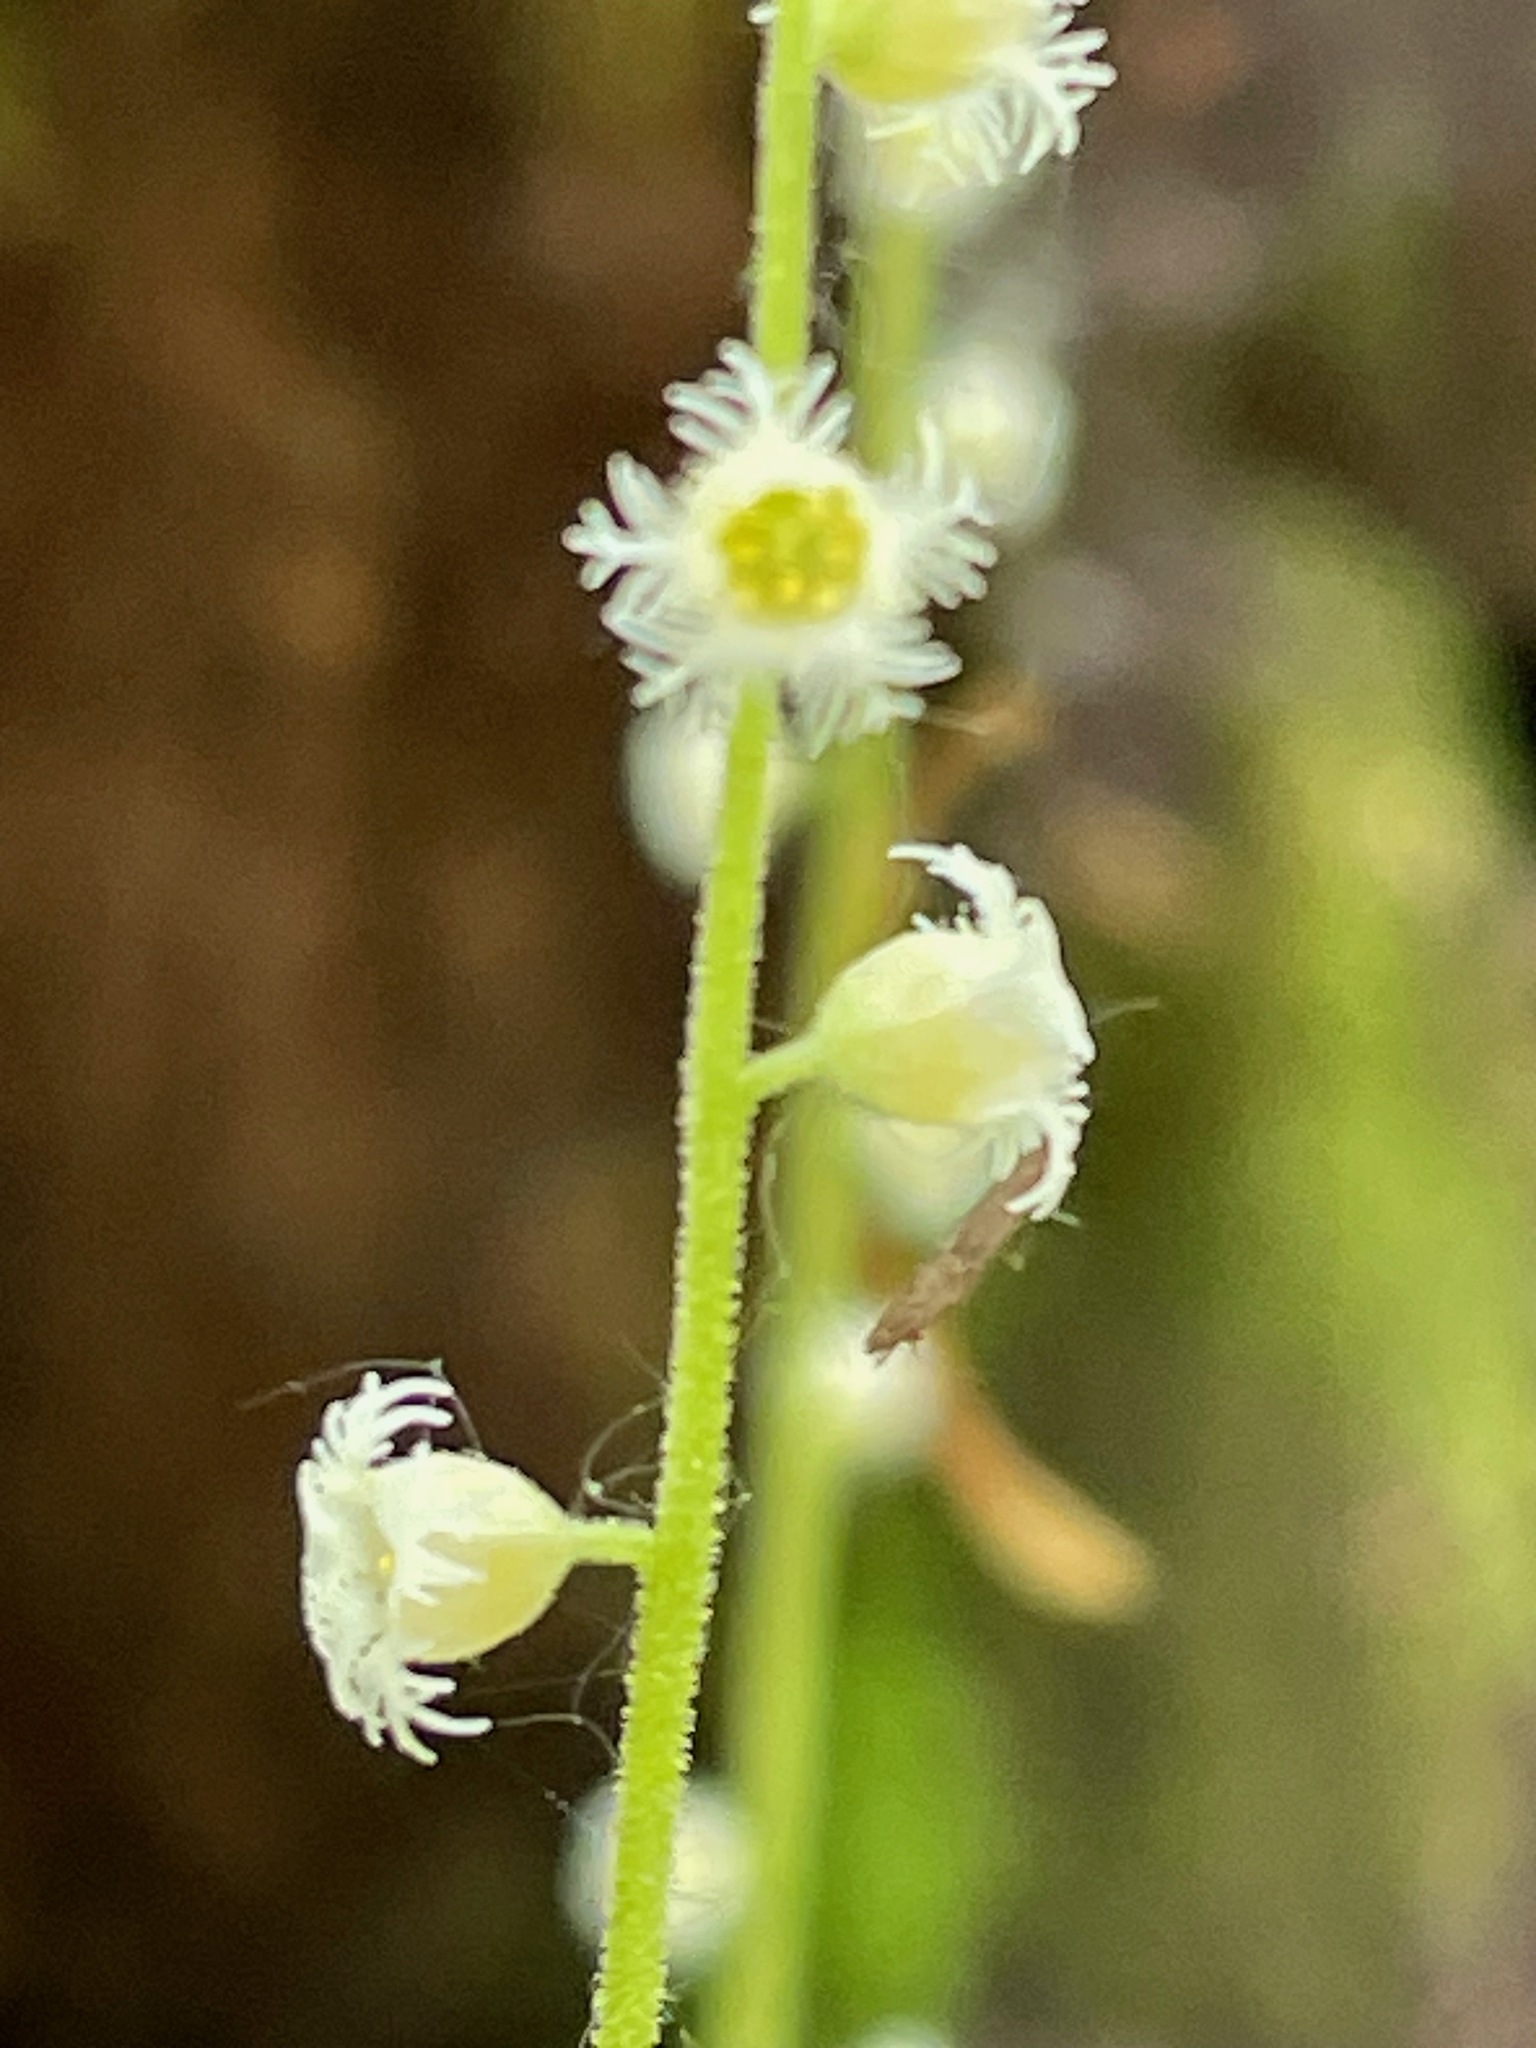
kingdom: Plantae
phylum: Tracheophyta
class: Magnoliopsida
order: Saxifragales
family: Saxifragaceae
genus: Mitella
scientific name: Mitella diphylla
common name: Coolwort
